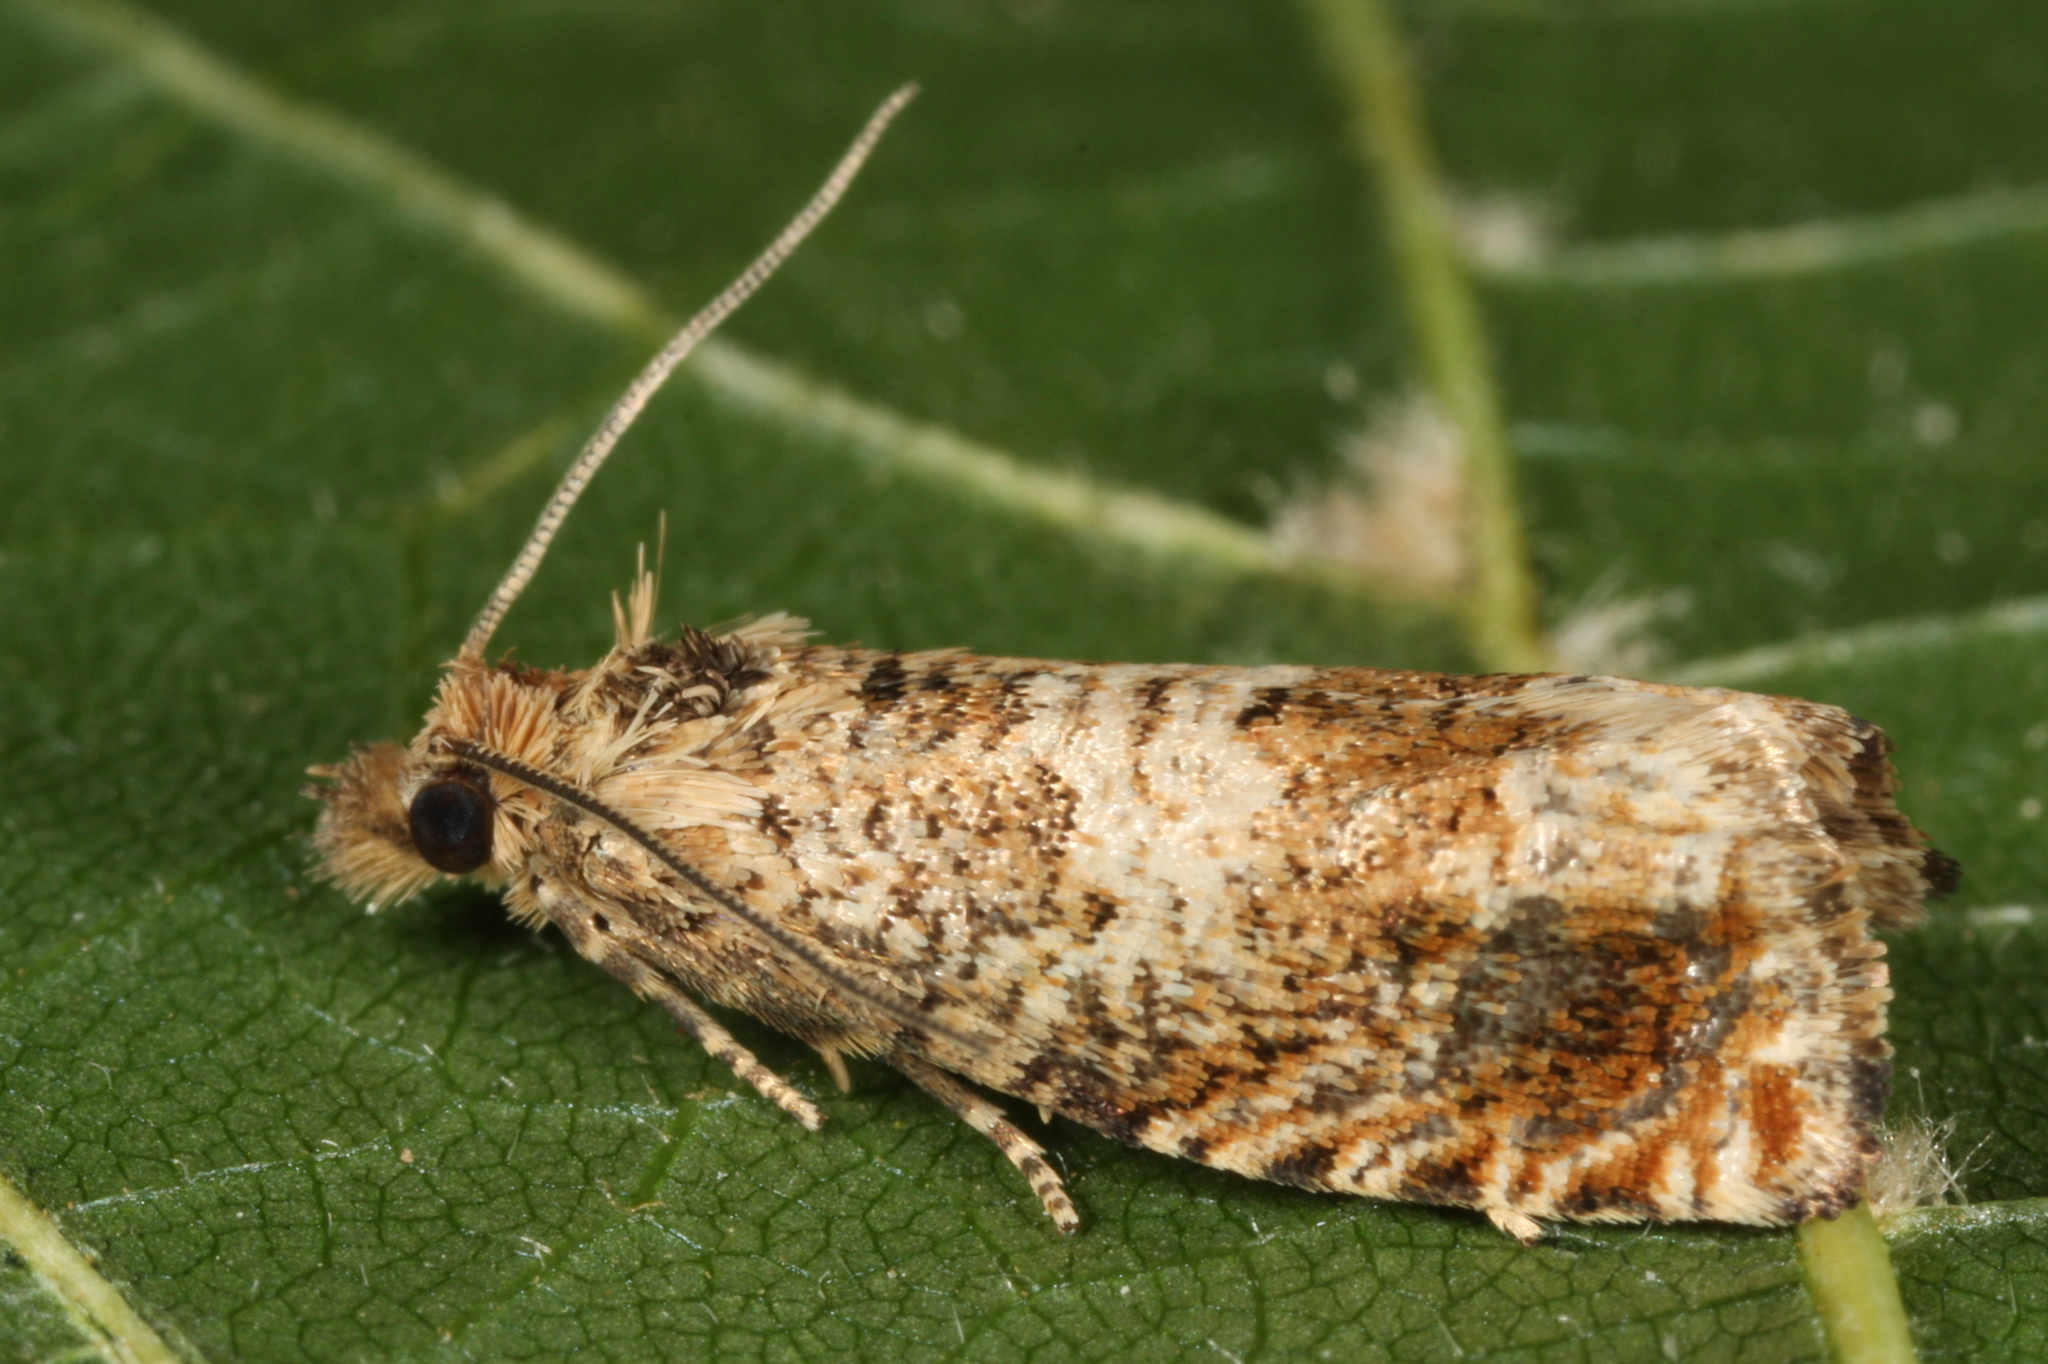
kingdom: Animalia
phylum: Arthropoda
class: Insecta
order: Lepidoptera
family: Tortricidae
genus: Epiblema
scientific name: Epiblema hepaticana
